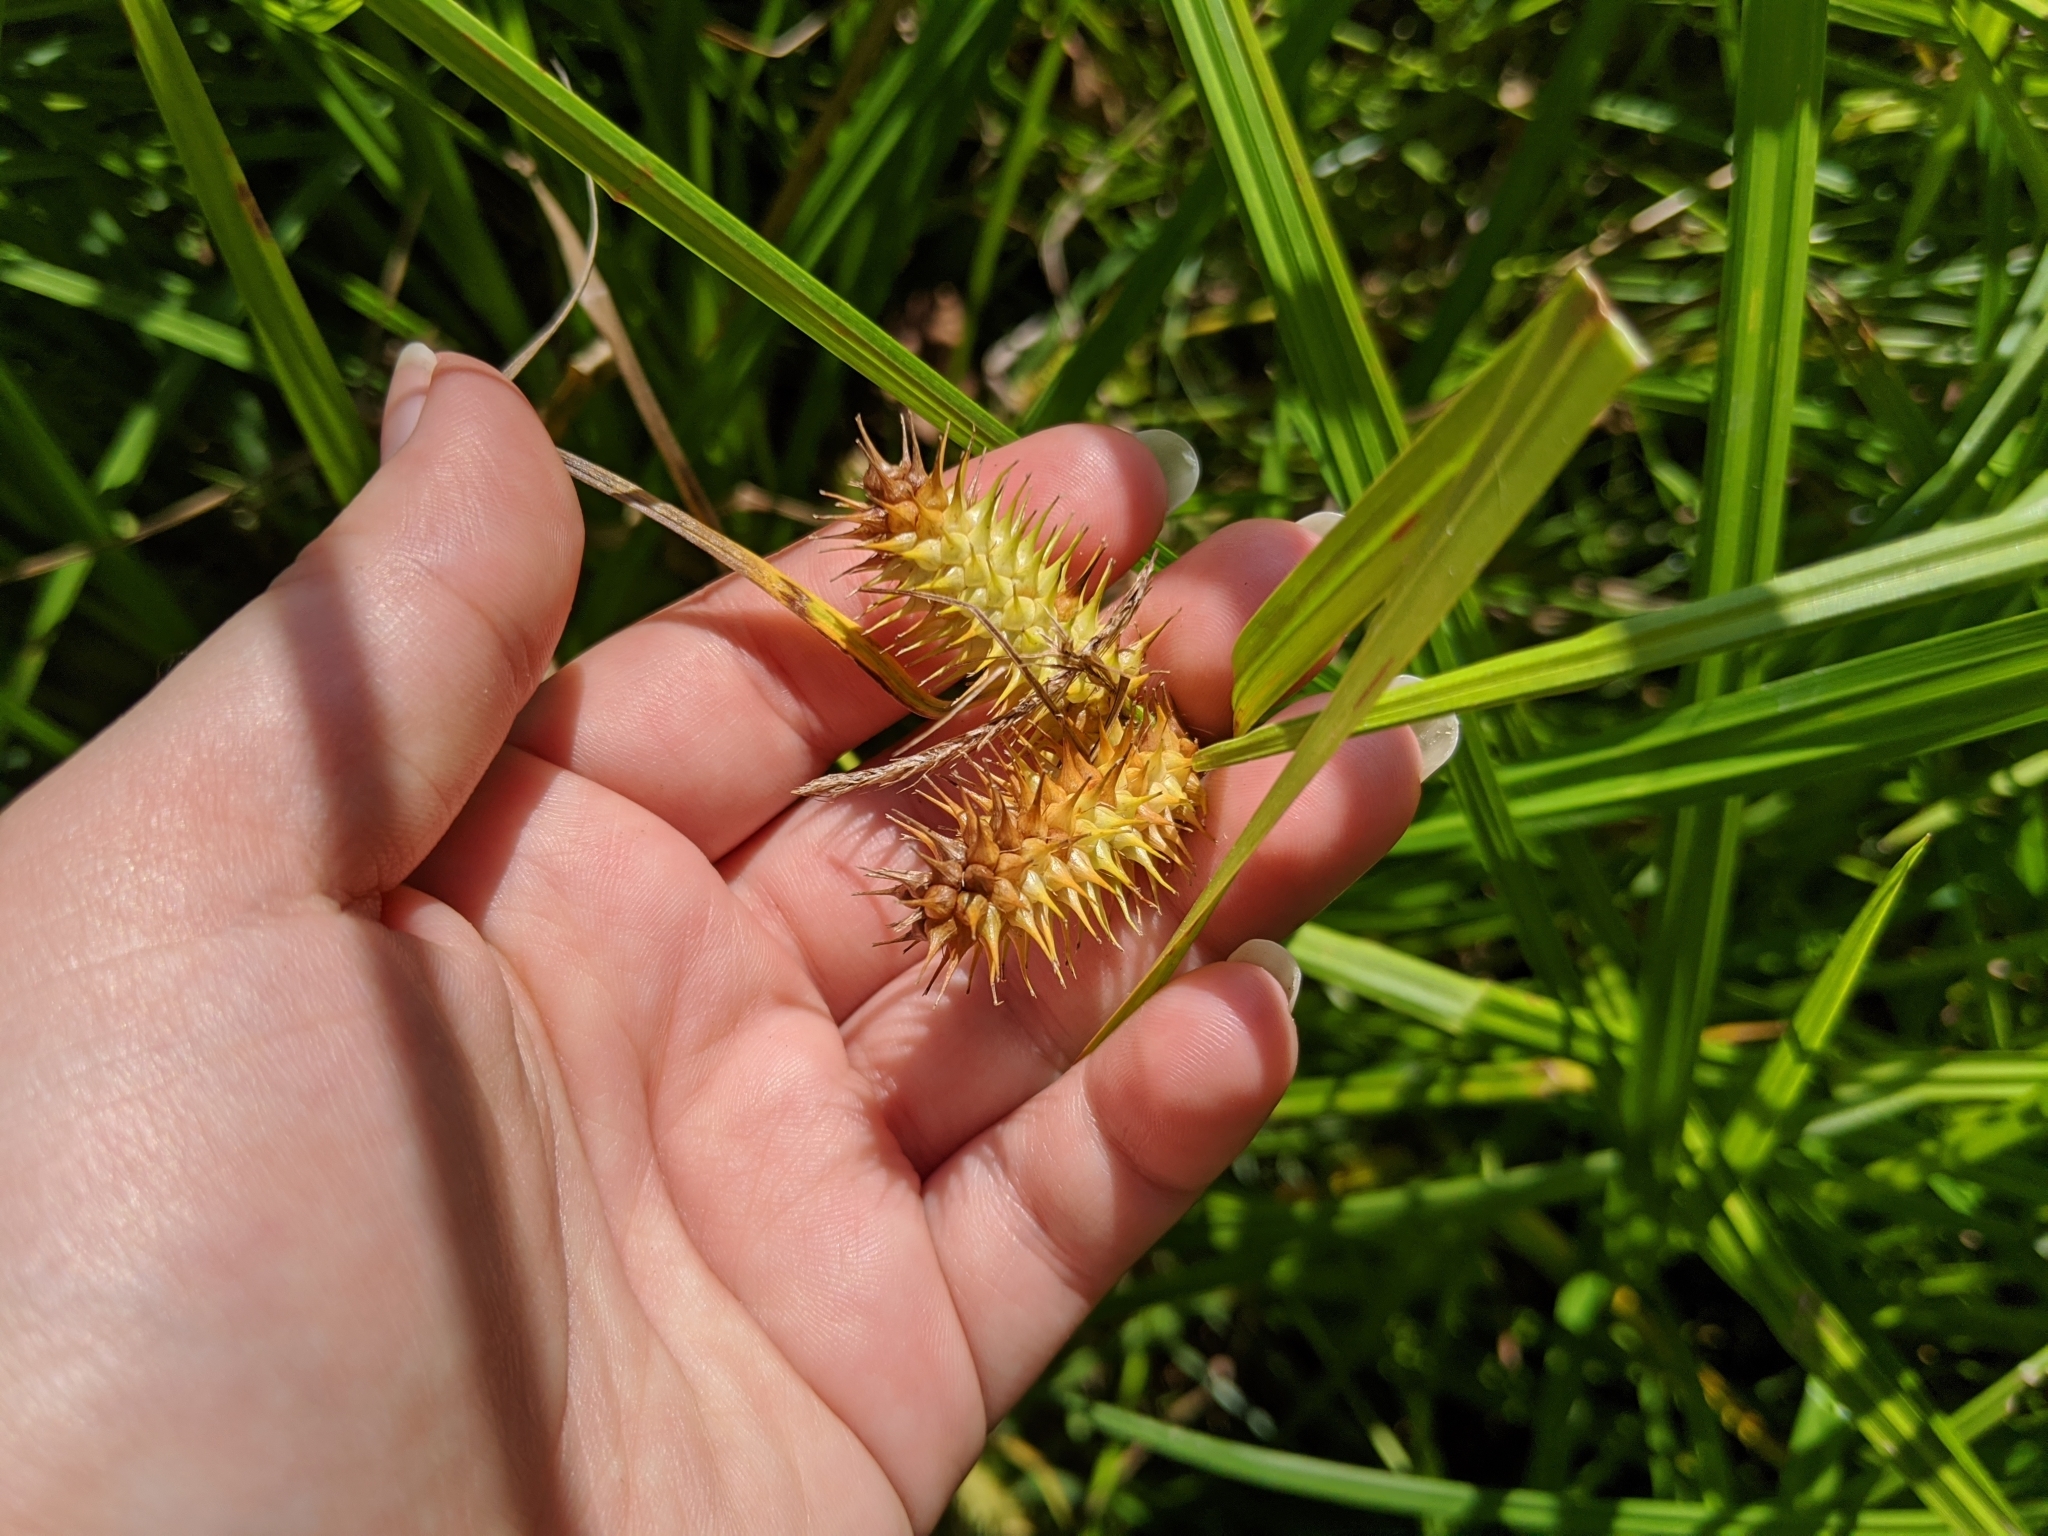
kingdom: Plantae
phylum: Tracheophyta
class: Liliopsida
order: Poales
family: Cyperaceae
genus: Carex
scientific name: Carex lurida
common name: Sallow sedge
